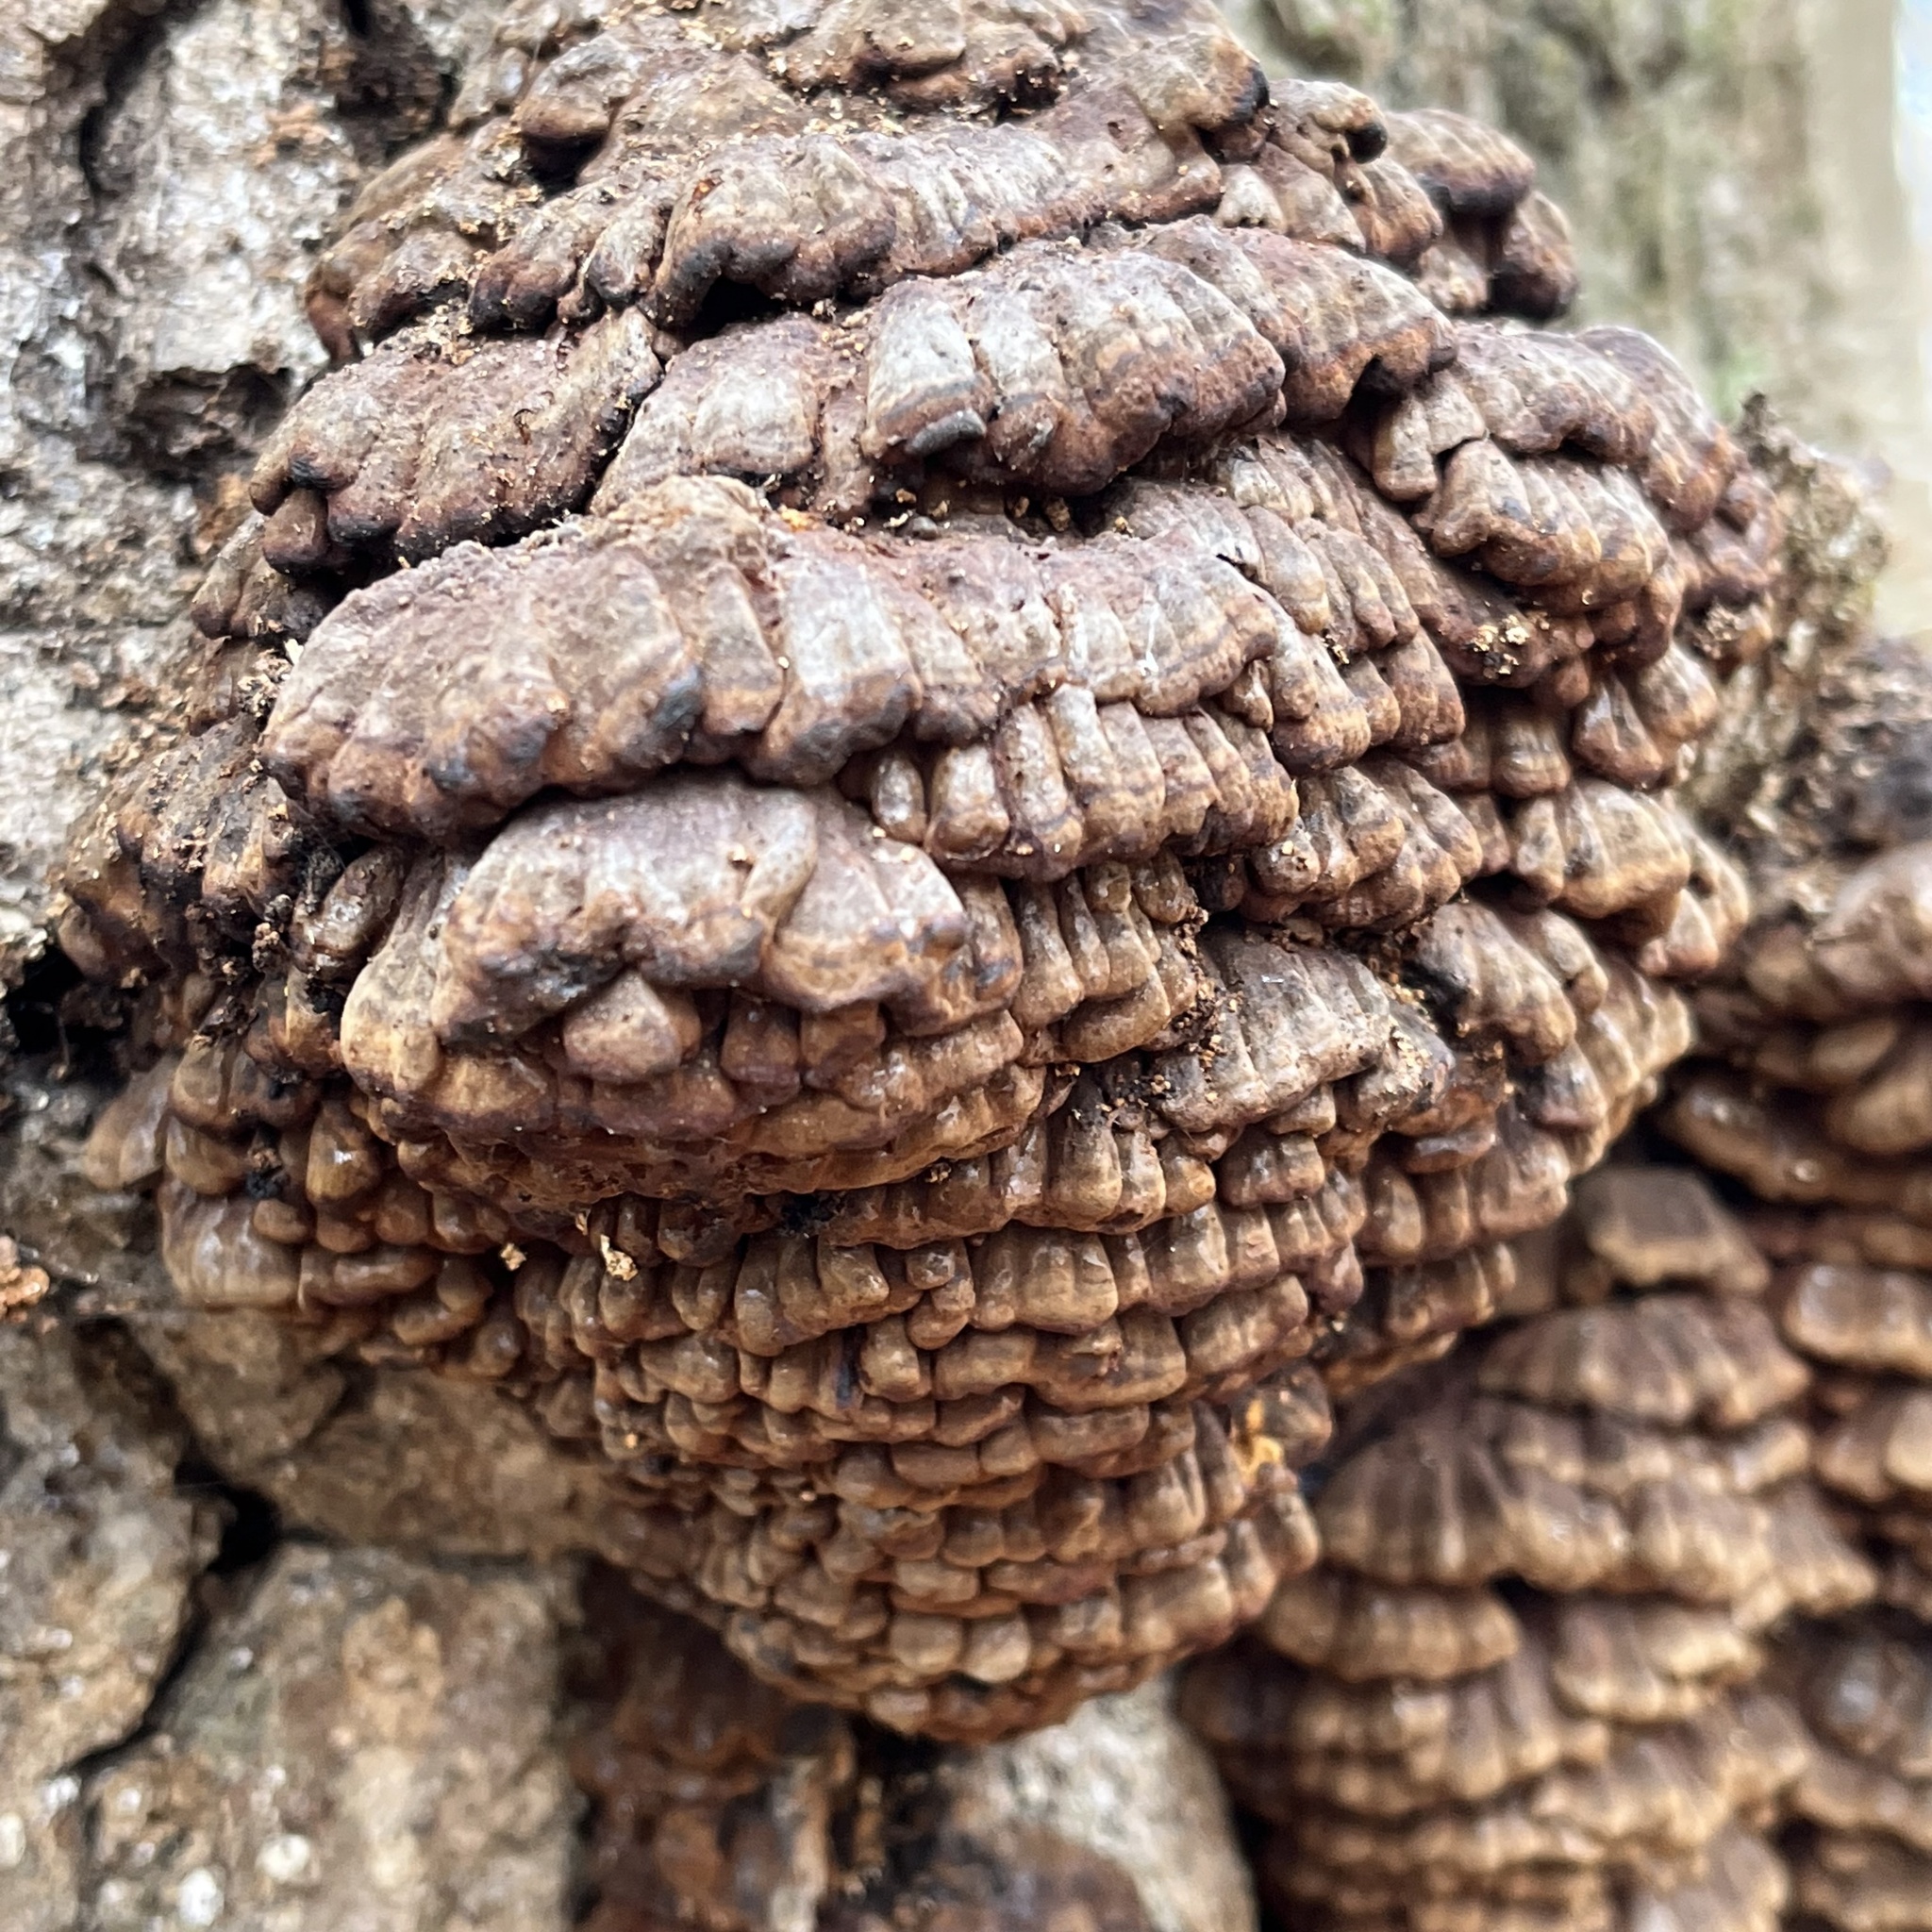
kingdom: Fungi
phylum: Basidiomycota
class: Agaricomycetes
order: Polyporales
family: Polyporaceae
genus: Globifomes
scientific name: Globifomes graveolens
